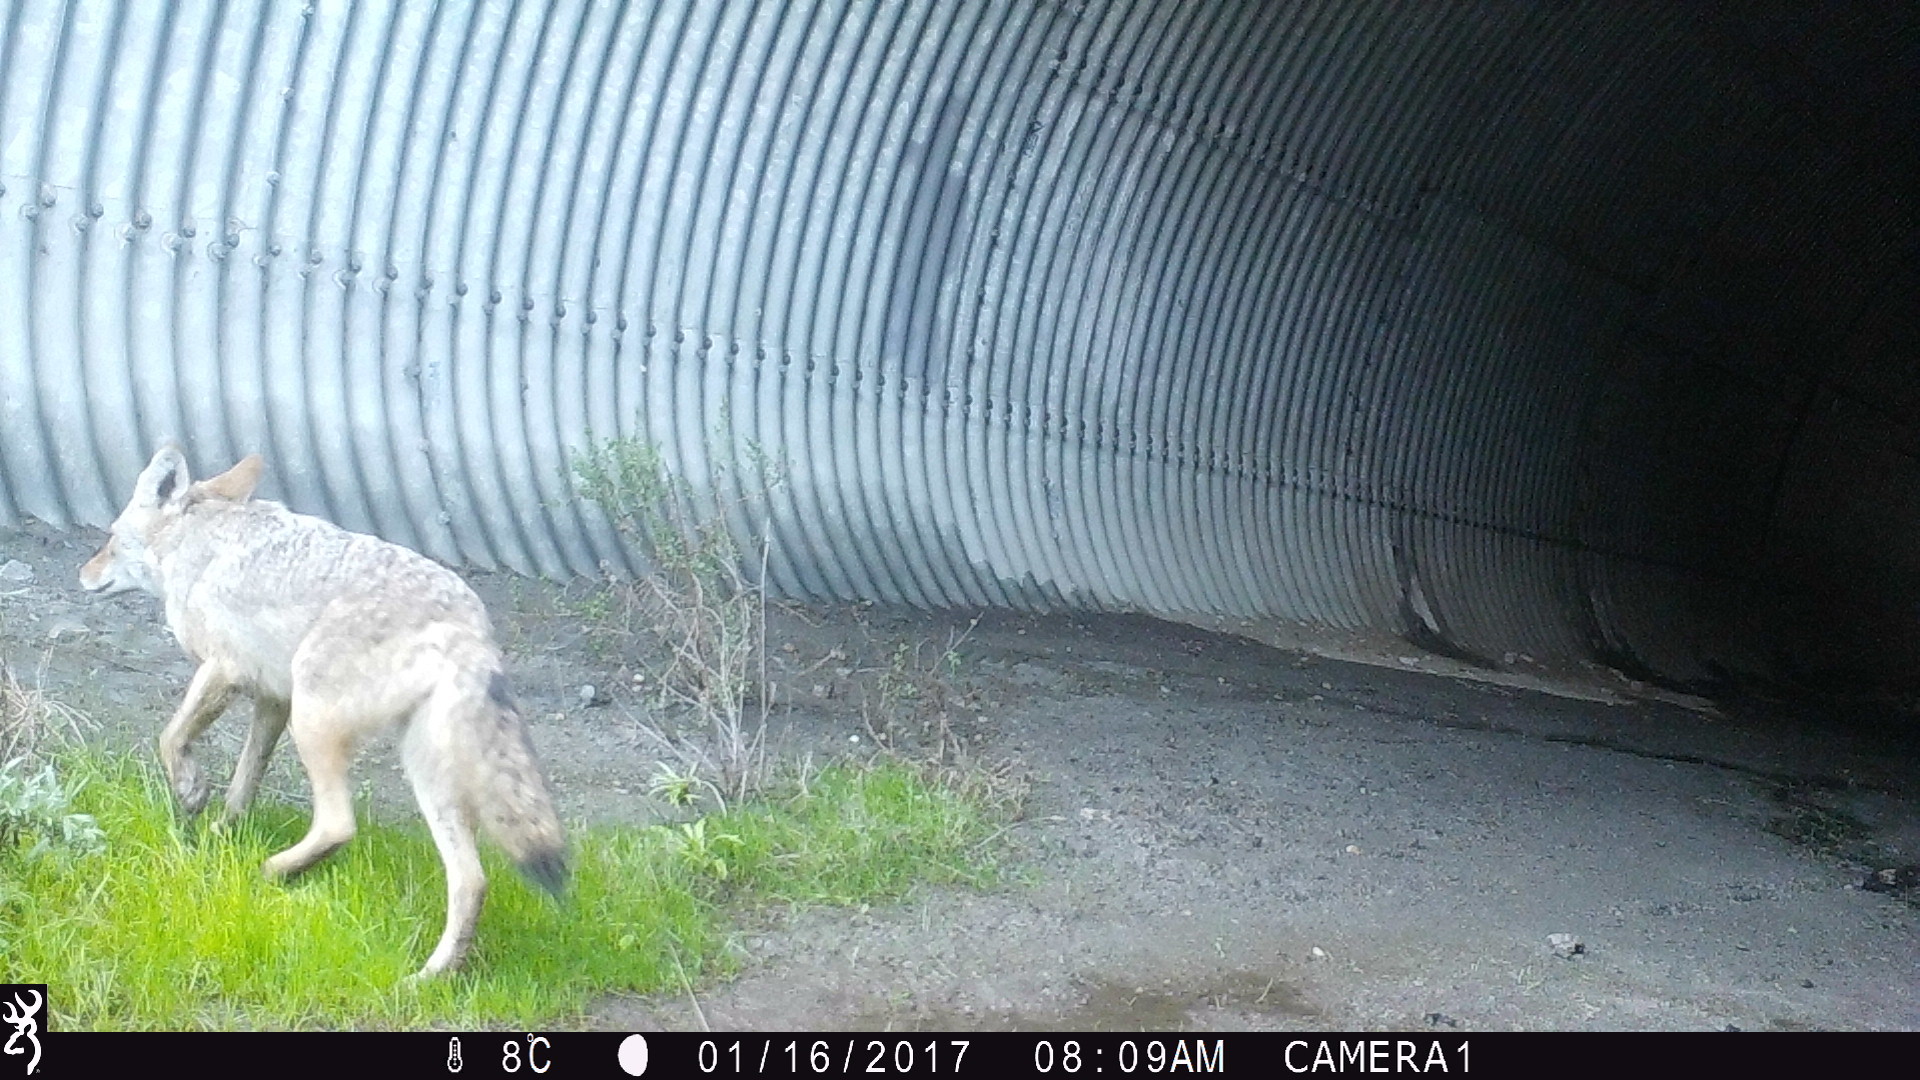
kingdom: Animalia
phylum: Chordata
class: Mammalia
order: Carnivora
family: Canidae
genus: Canis
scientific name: Canis latrans
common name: Coyote
